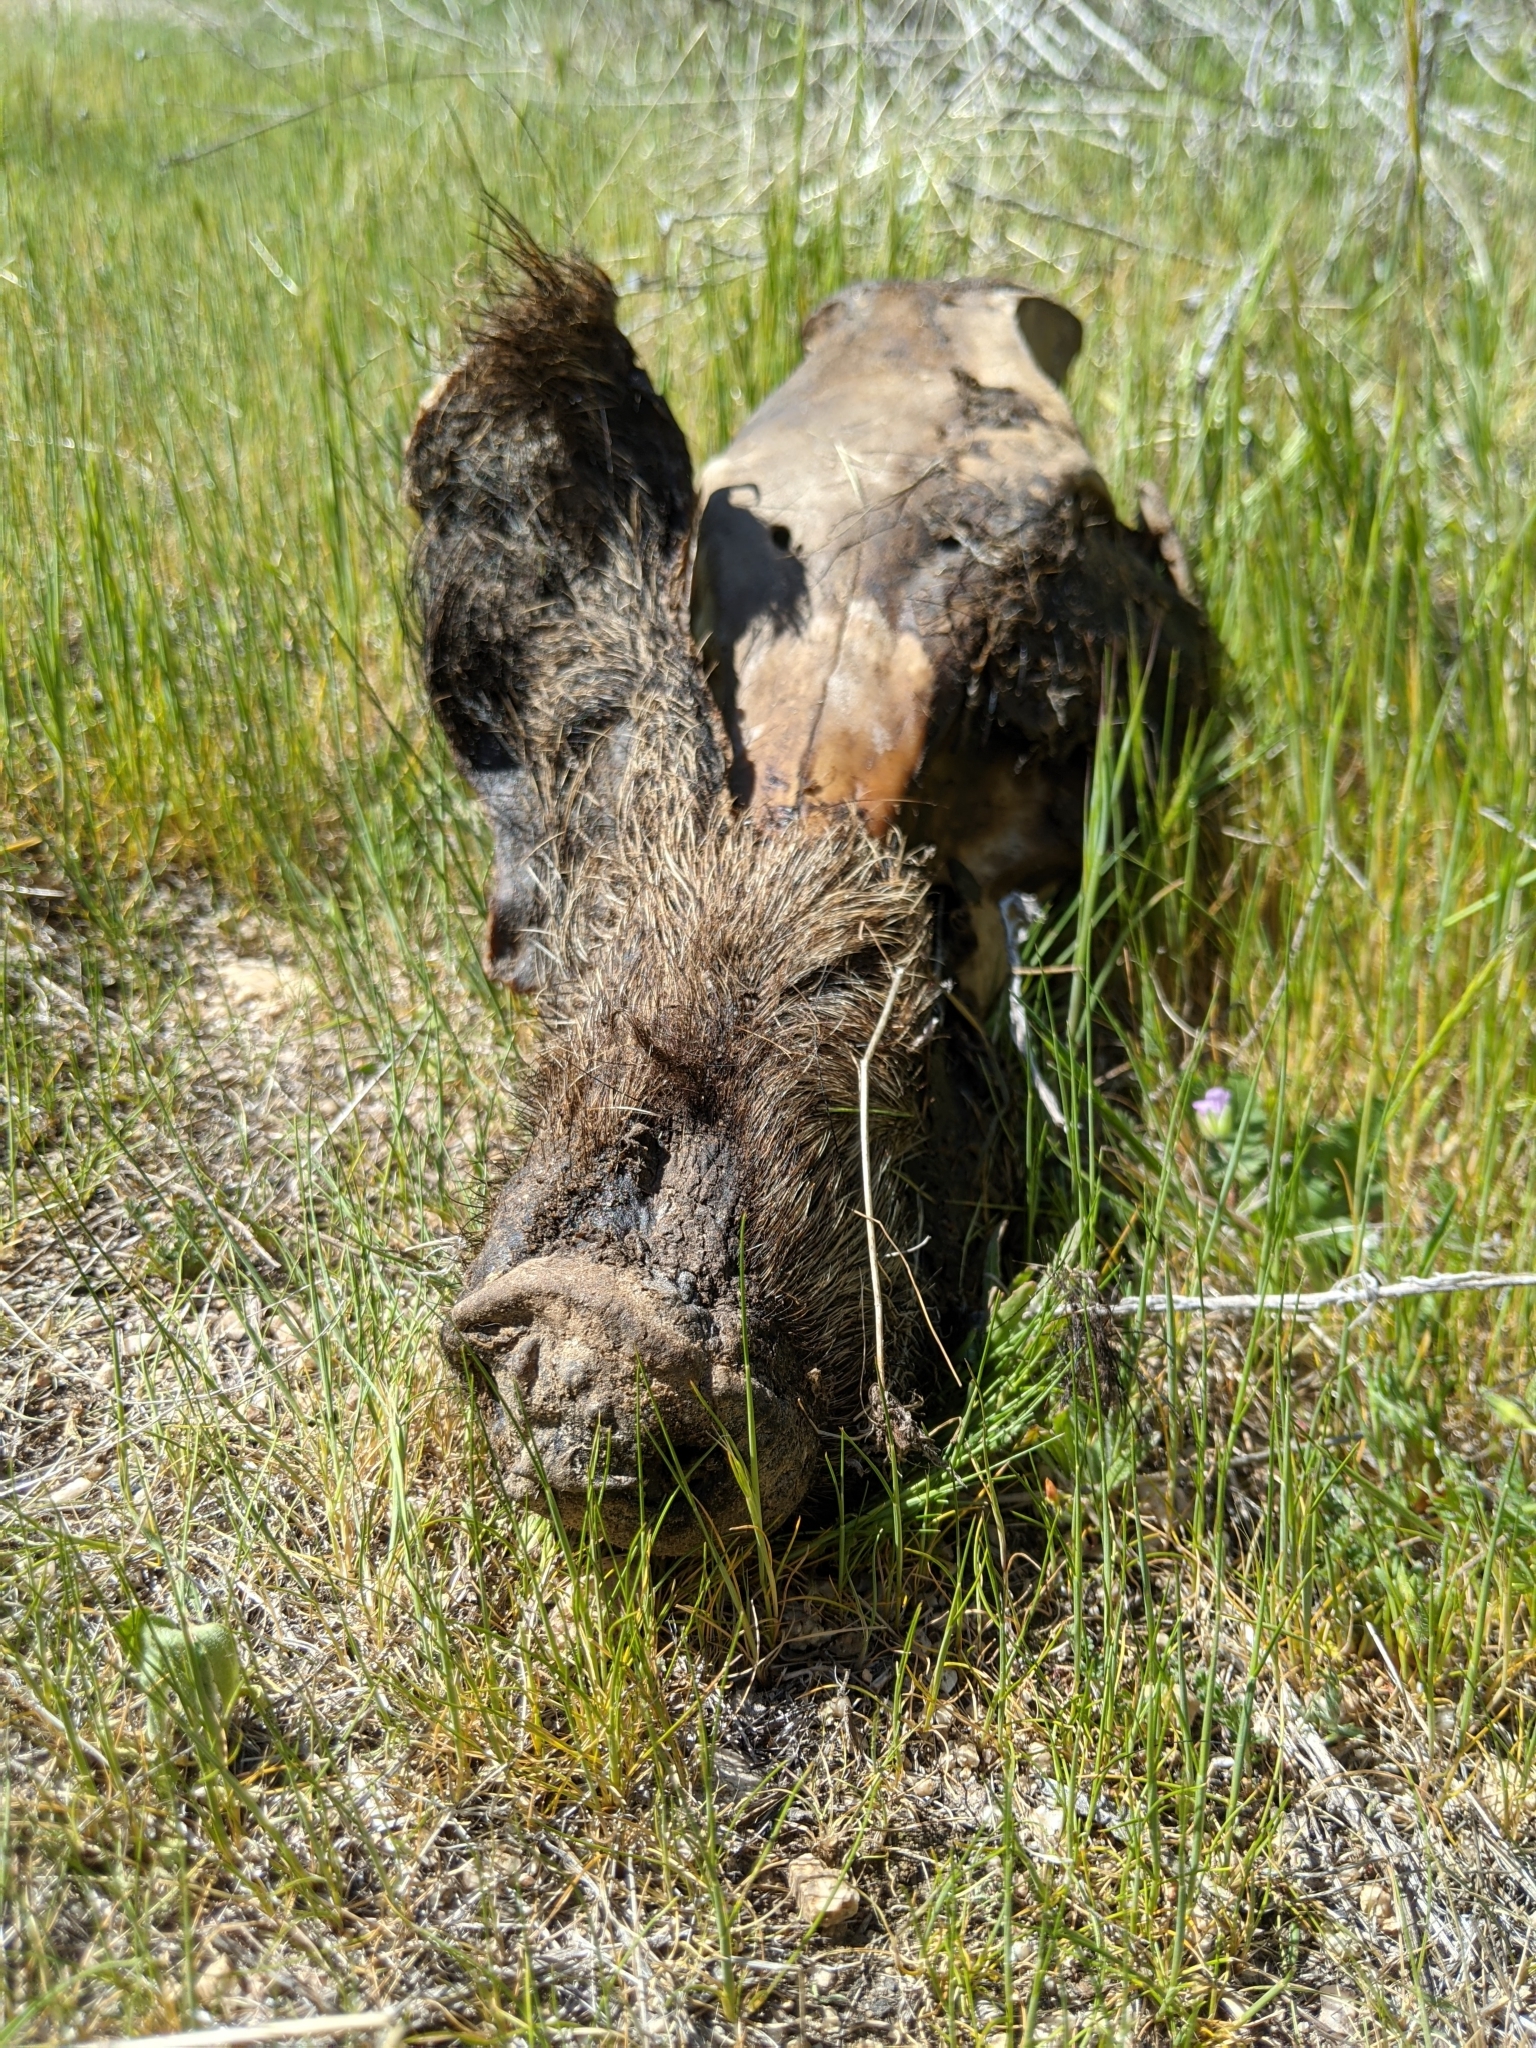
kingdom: Animalia
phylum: Chordata
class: Mammalia
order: Artiodactyla
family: Suidae
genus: Sus
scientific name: Sus scrofa
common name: Wild boar
